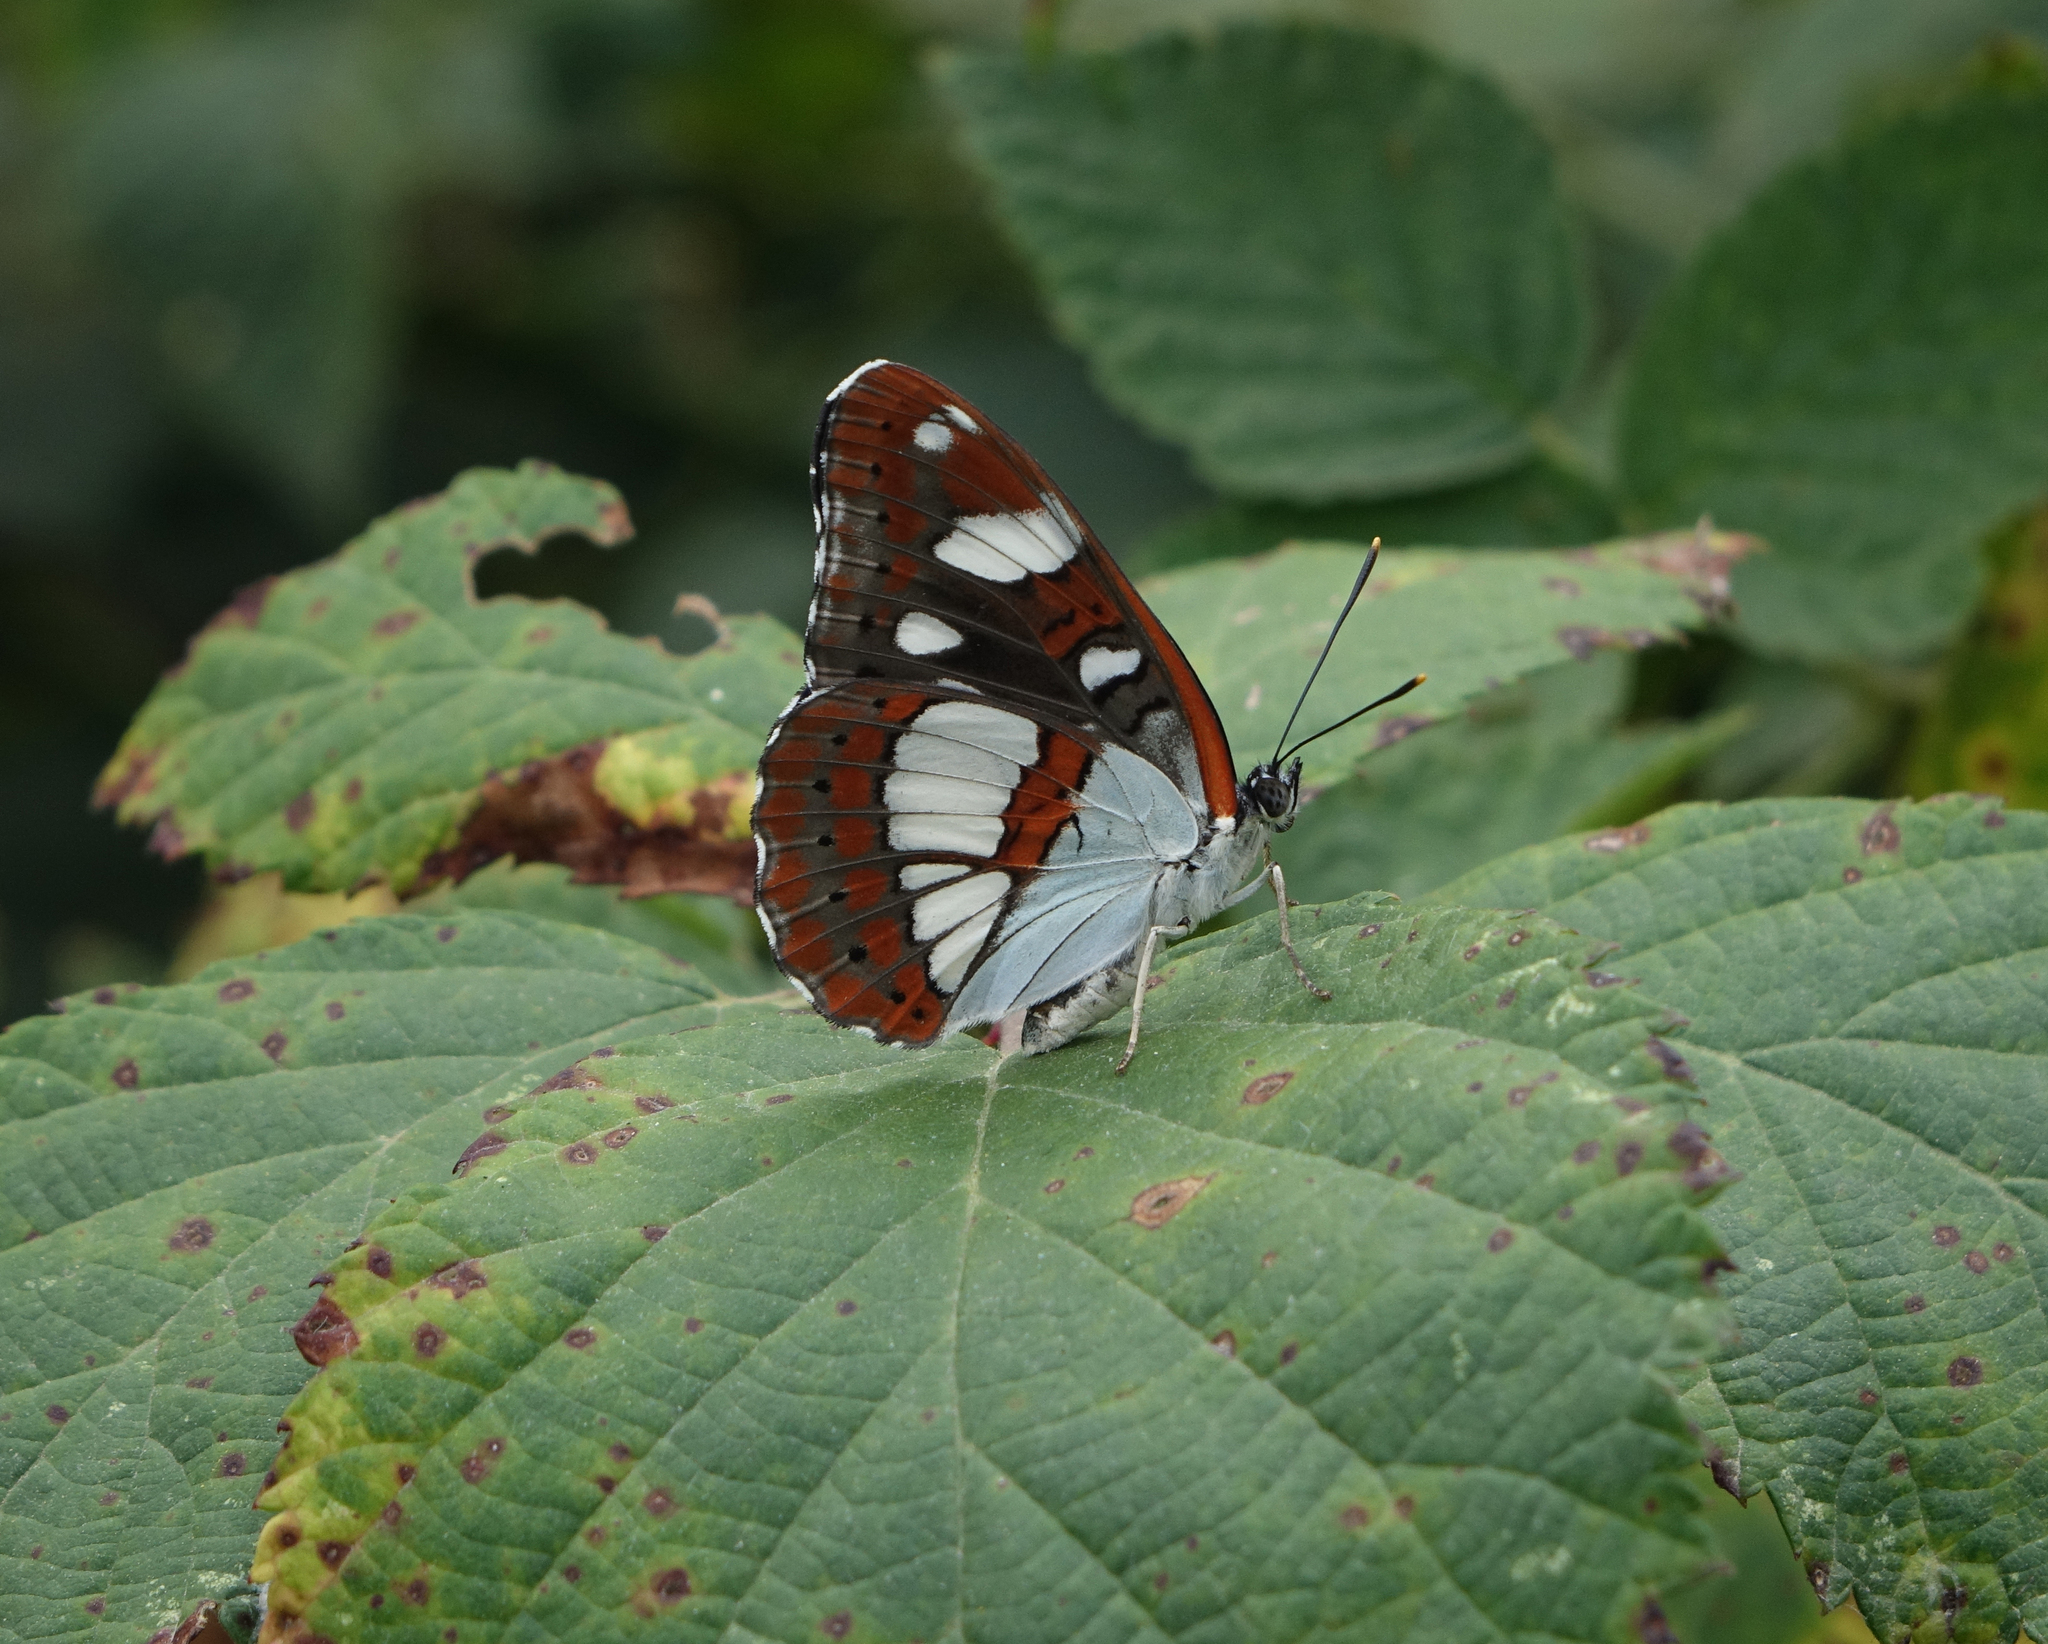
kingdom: Animalia
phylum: Arthropoda
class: Insecta
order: Lepidoptera
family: Nymphalidae
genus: Limenitis
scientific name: Limenitis reducta
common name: Southern white admiral
